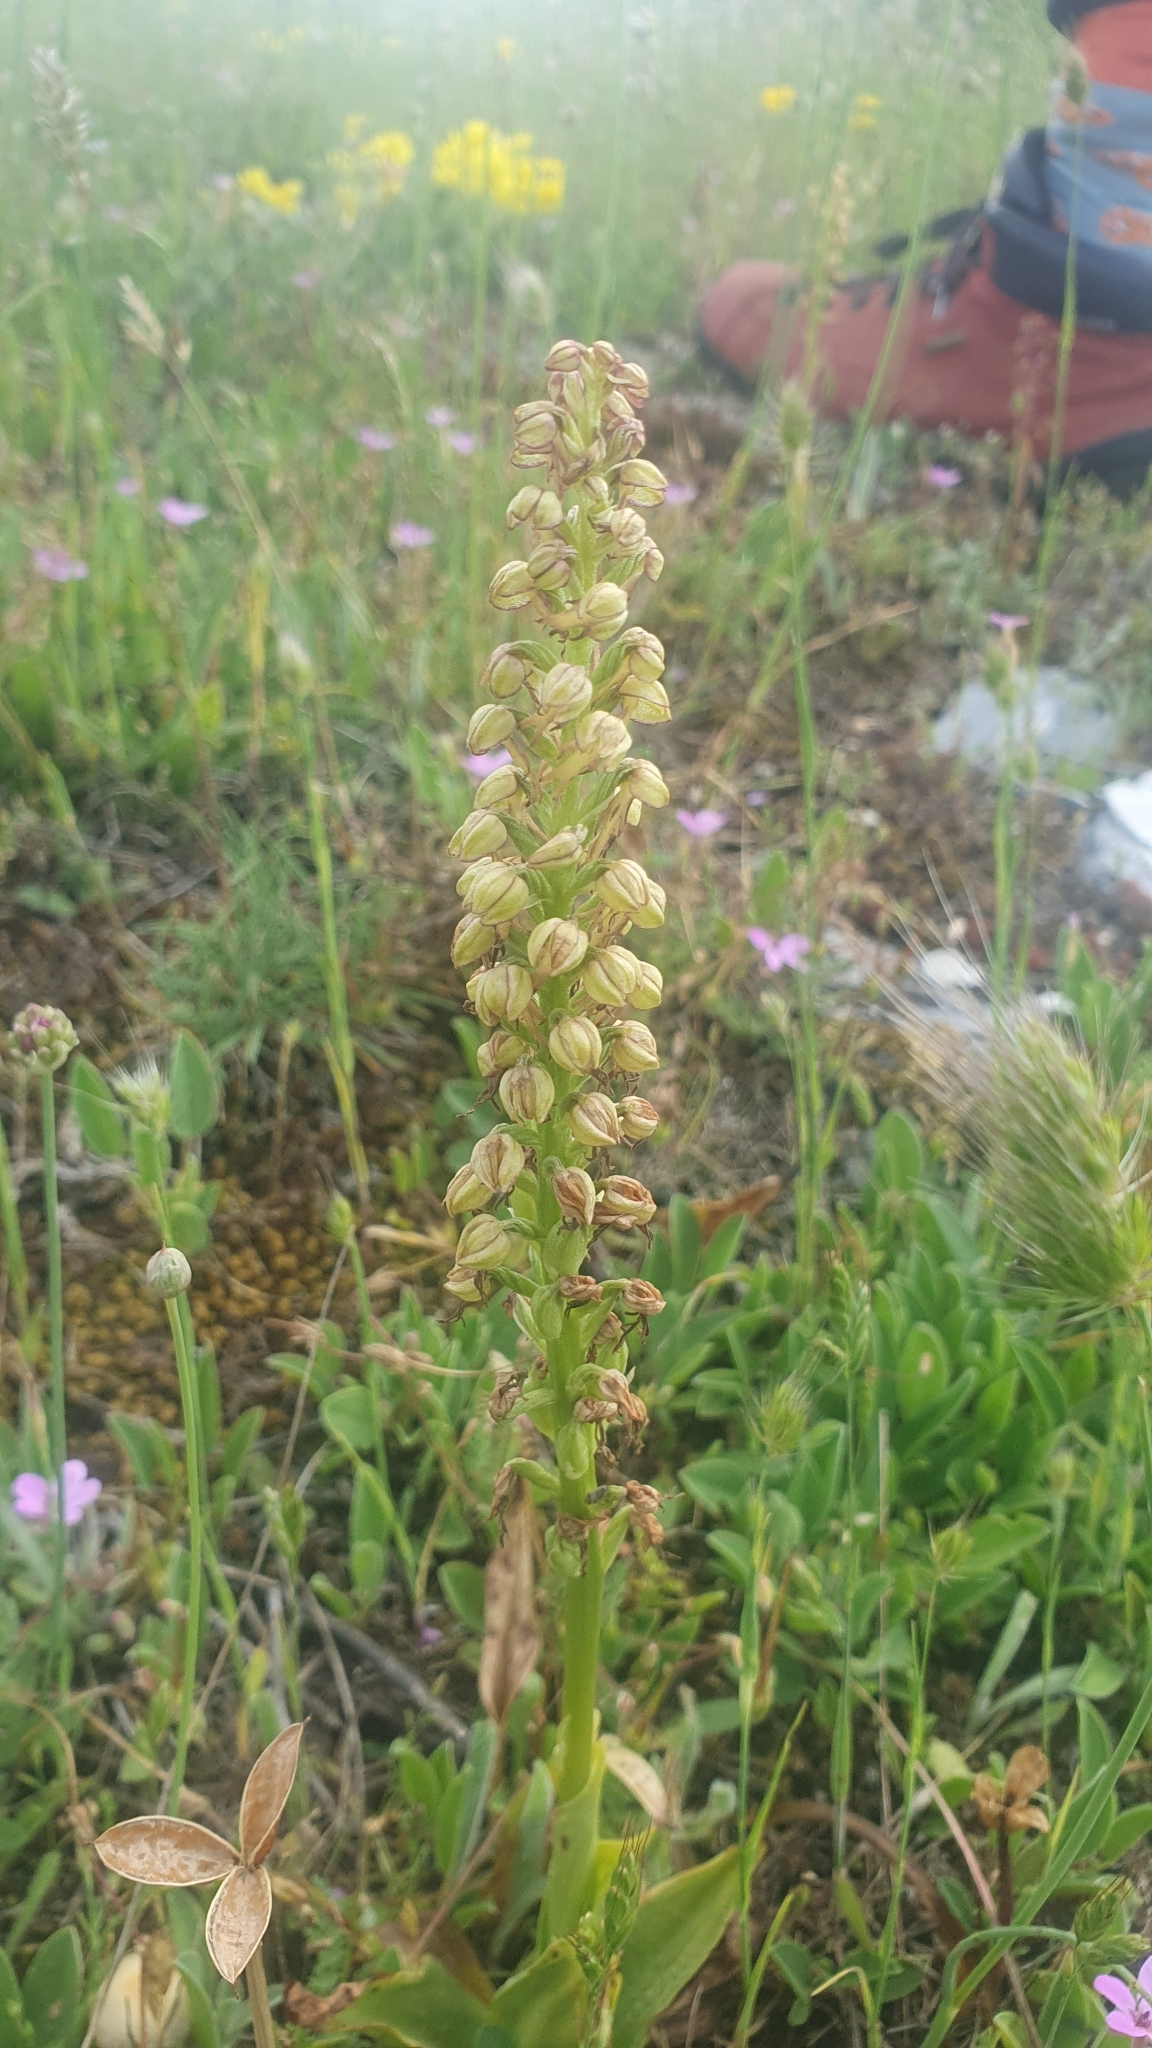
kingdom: Plantae
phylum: Tracheophyta
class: Liliopsida
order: Asparagales
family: Orchidaceae
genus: Orchis
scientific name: Orchis anthropophora
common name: Man orchid
